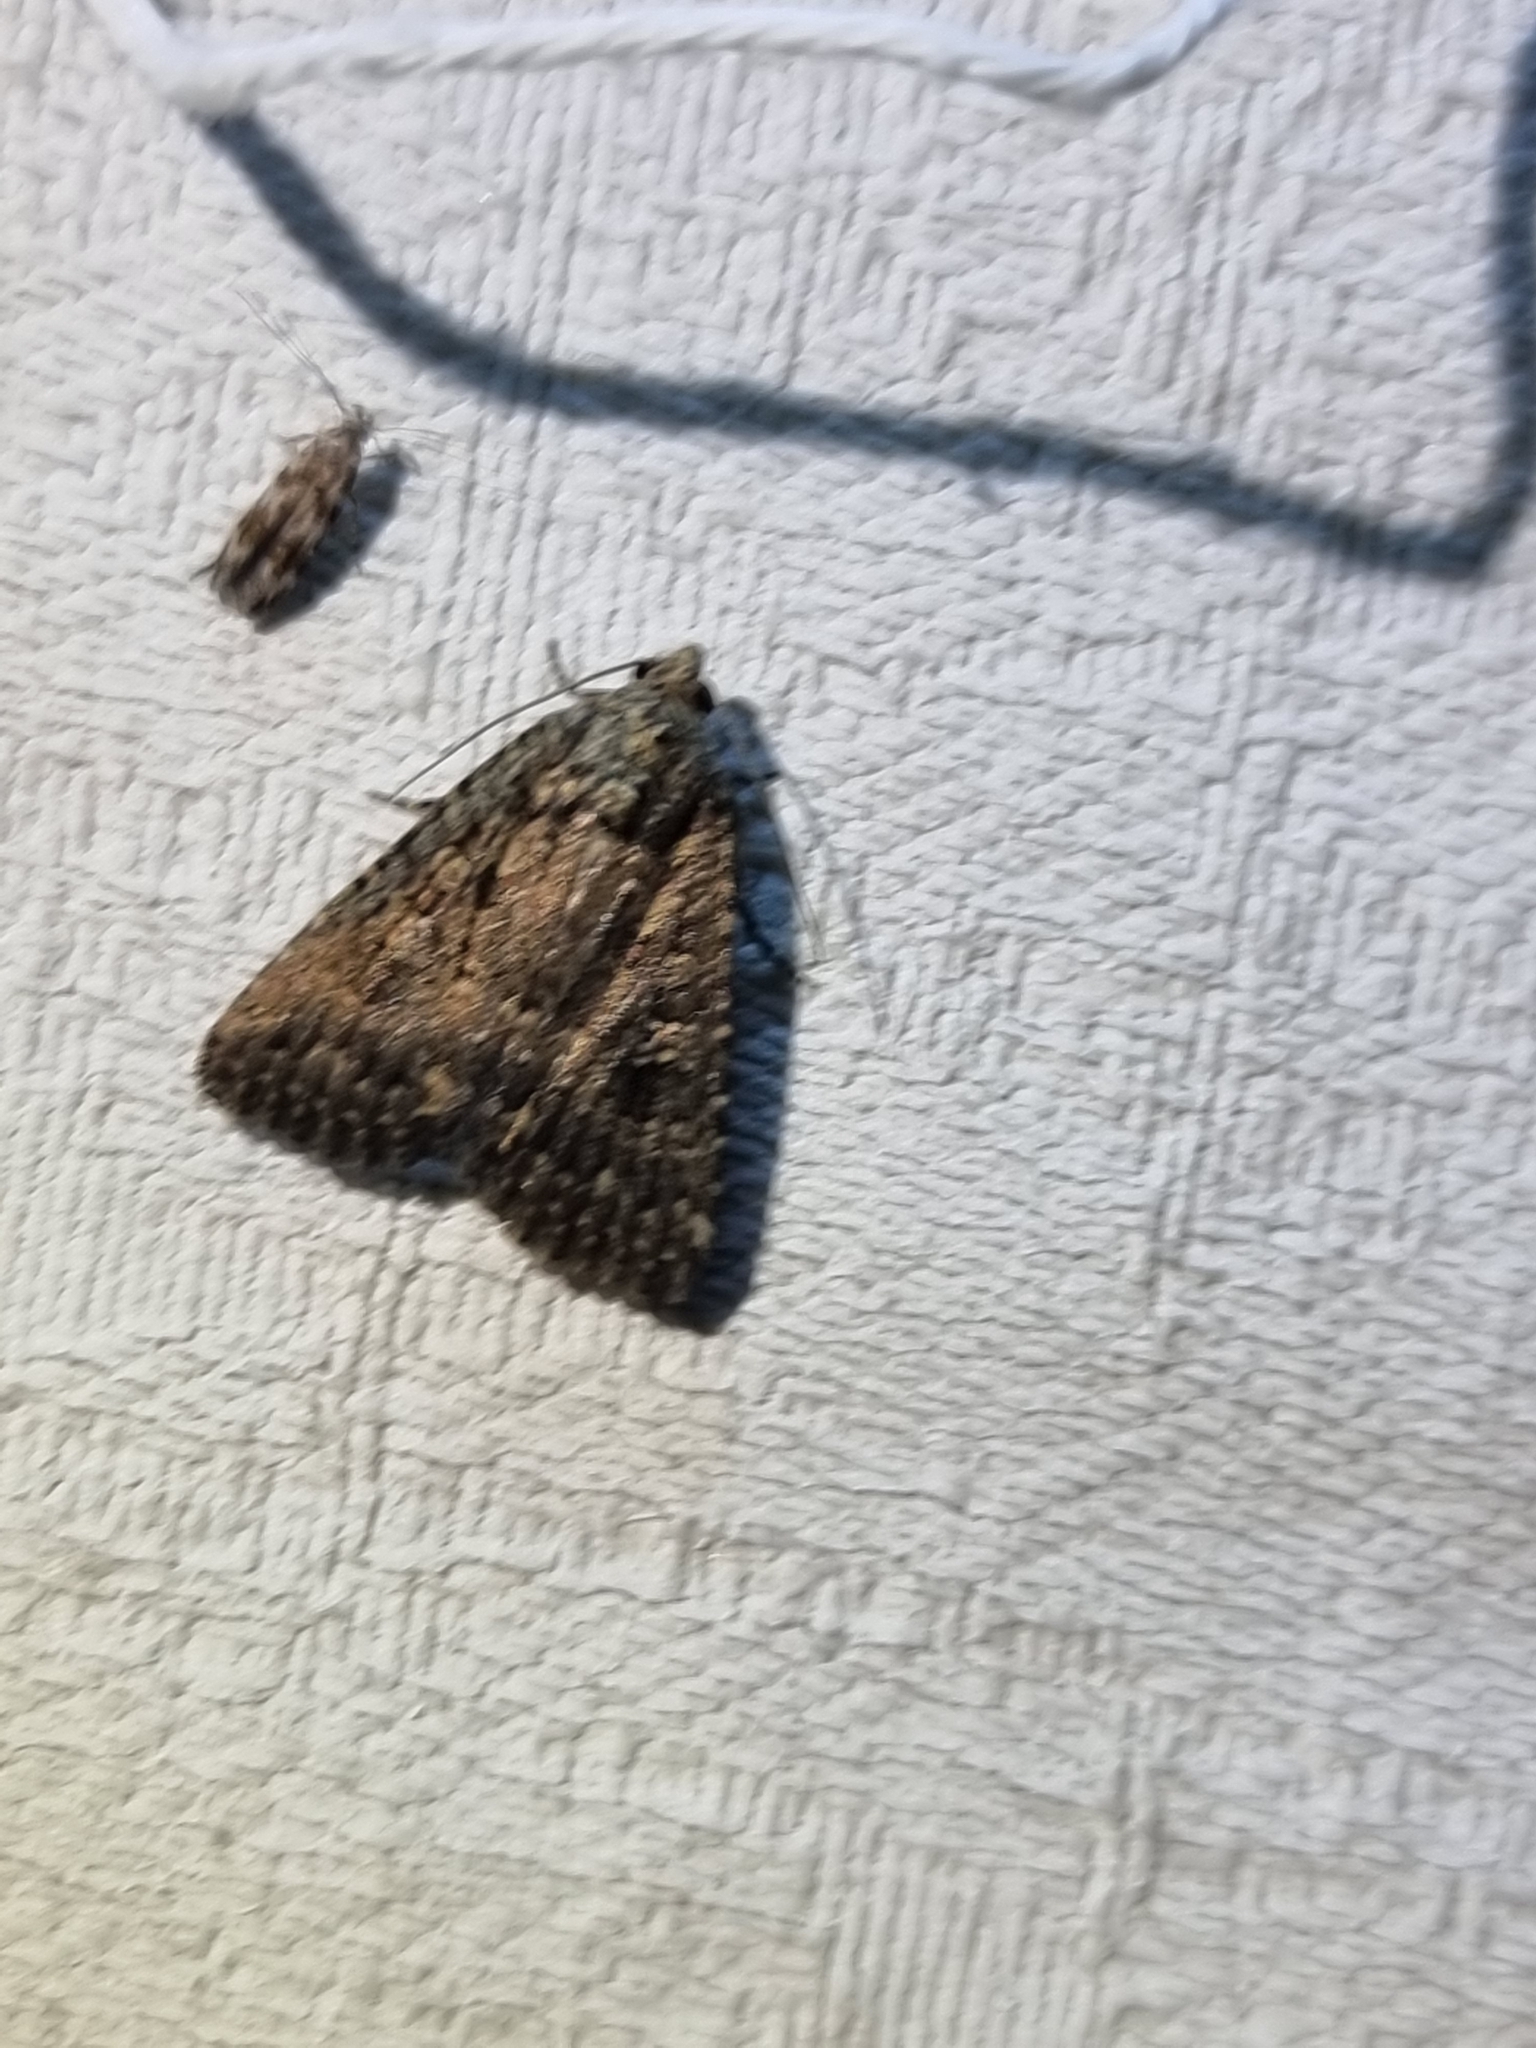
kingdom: Animalia
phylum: Arthropoda
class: Insecta
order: Lepidoptera
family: Noctuidae
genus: Hypoperigea
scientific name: Hypoperigea tonsa
